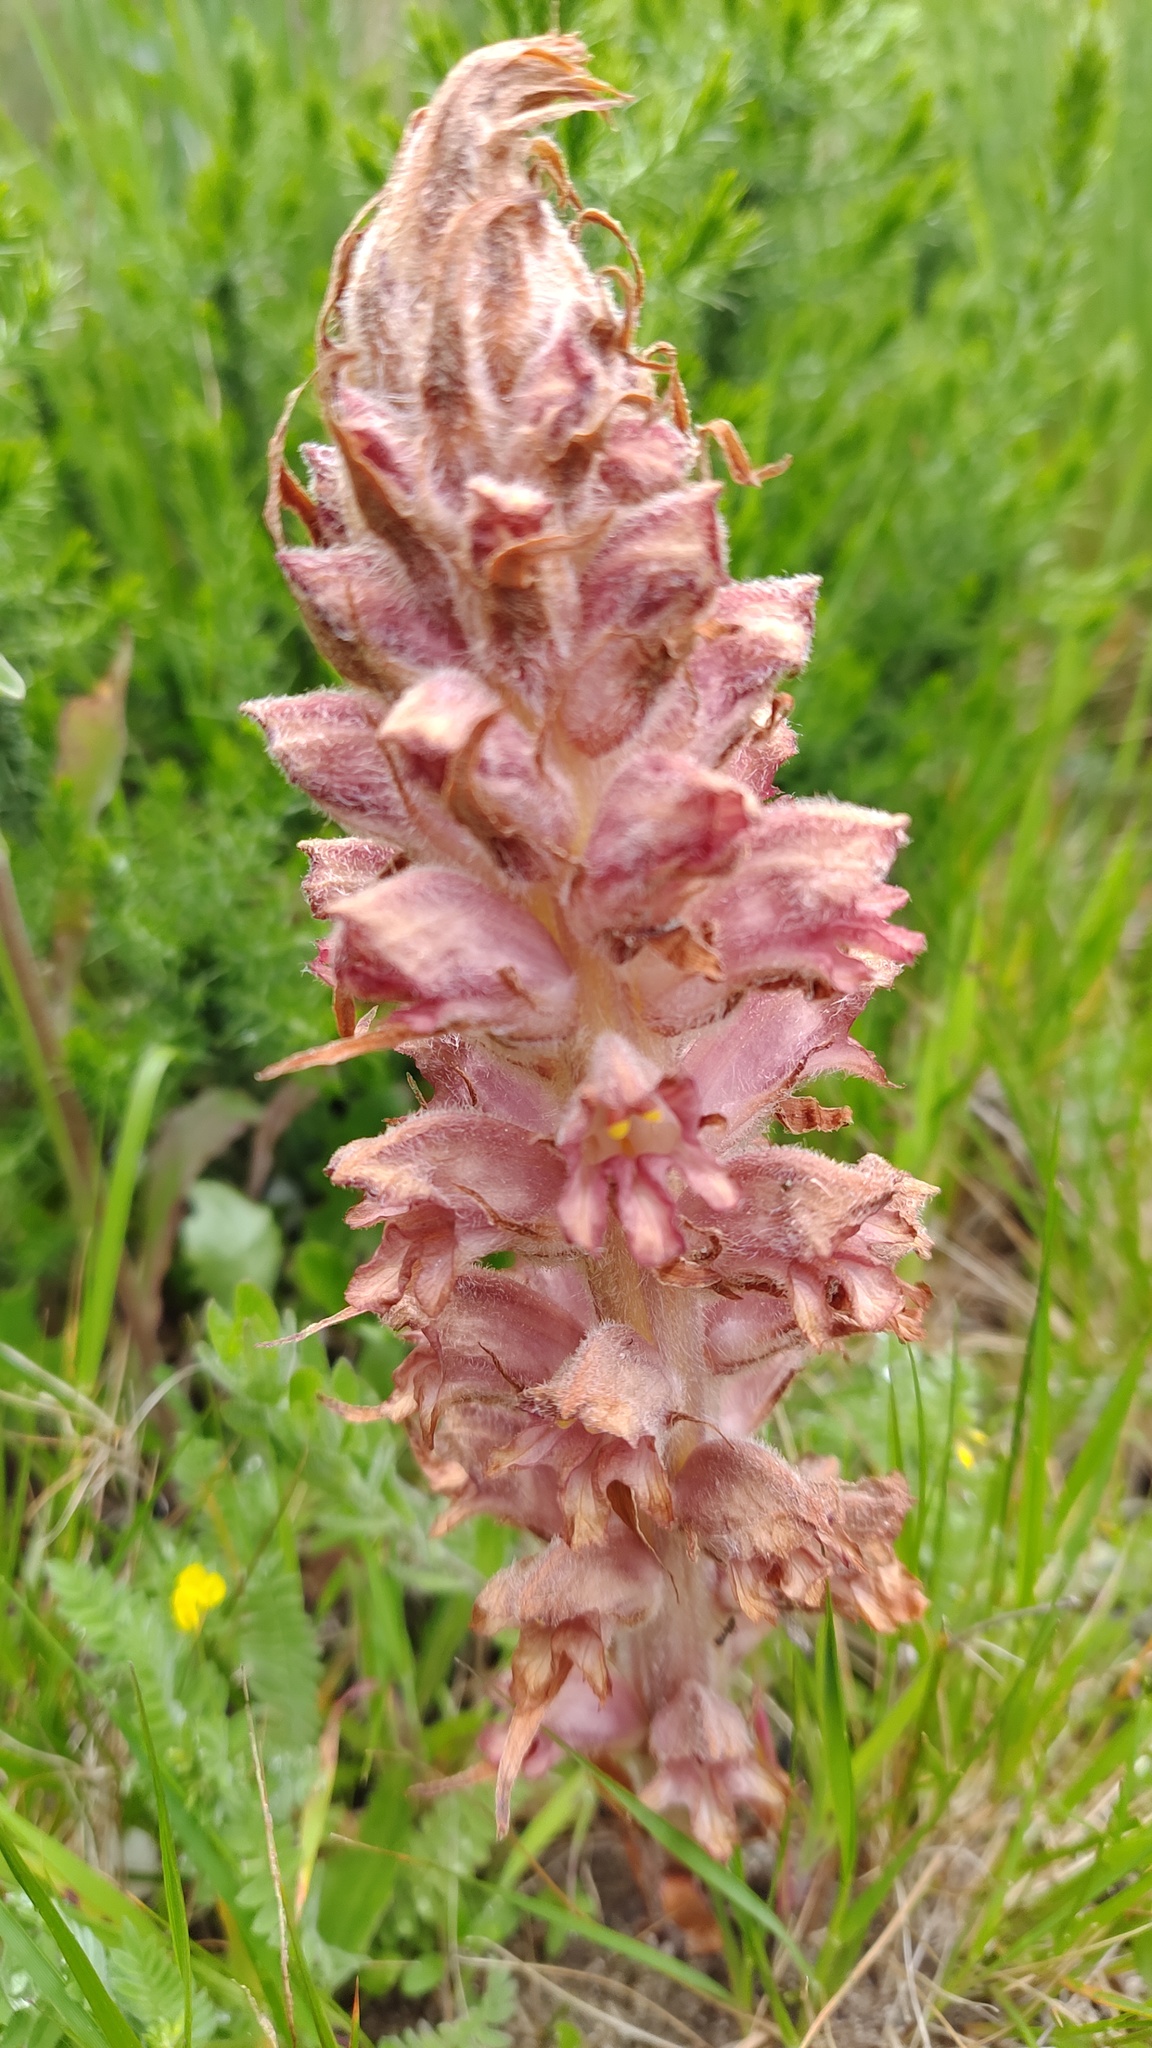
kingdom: Plantae
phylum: Tracheophyta
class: Magnoliopsida
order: Lamiales
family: Orobanchaceae
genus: Orobanche
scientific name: Orobanche rapum-genistae
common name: Greater broomrape
